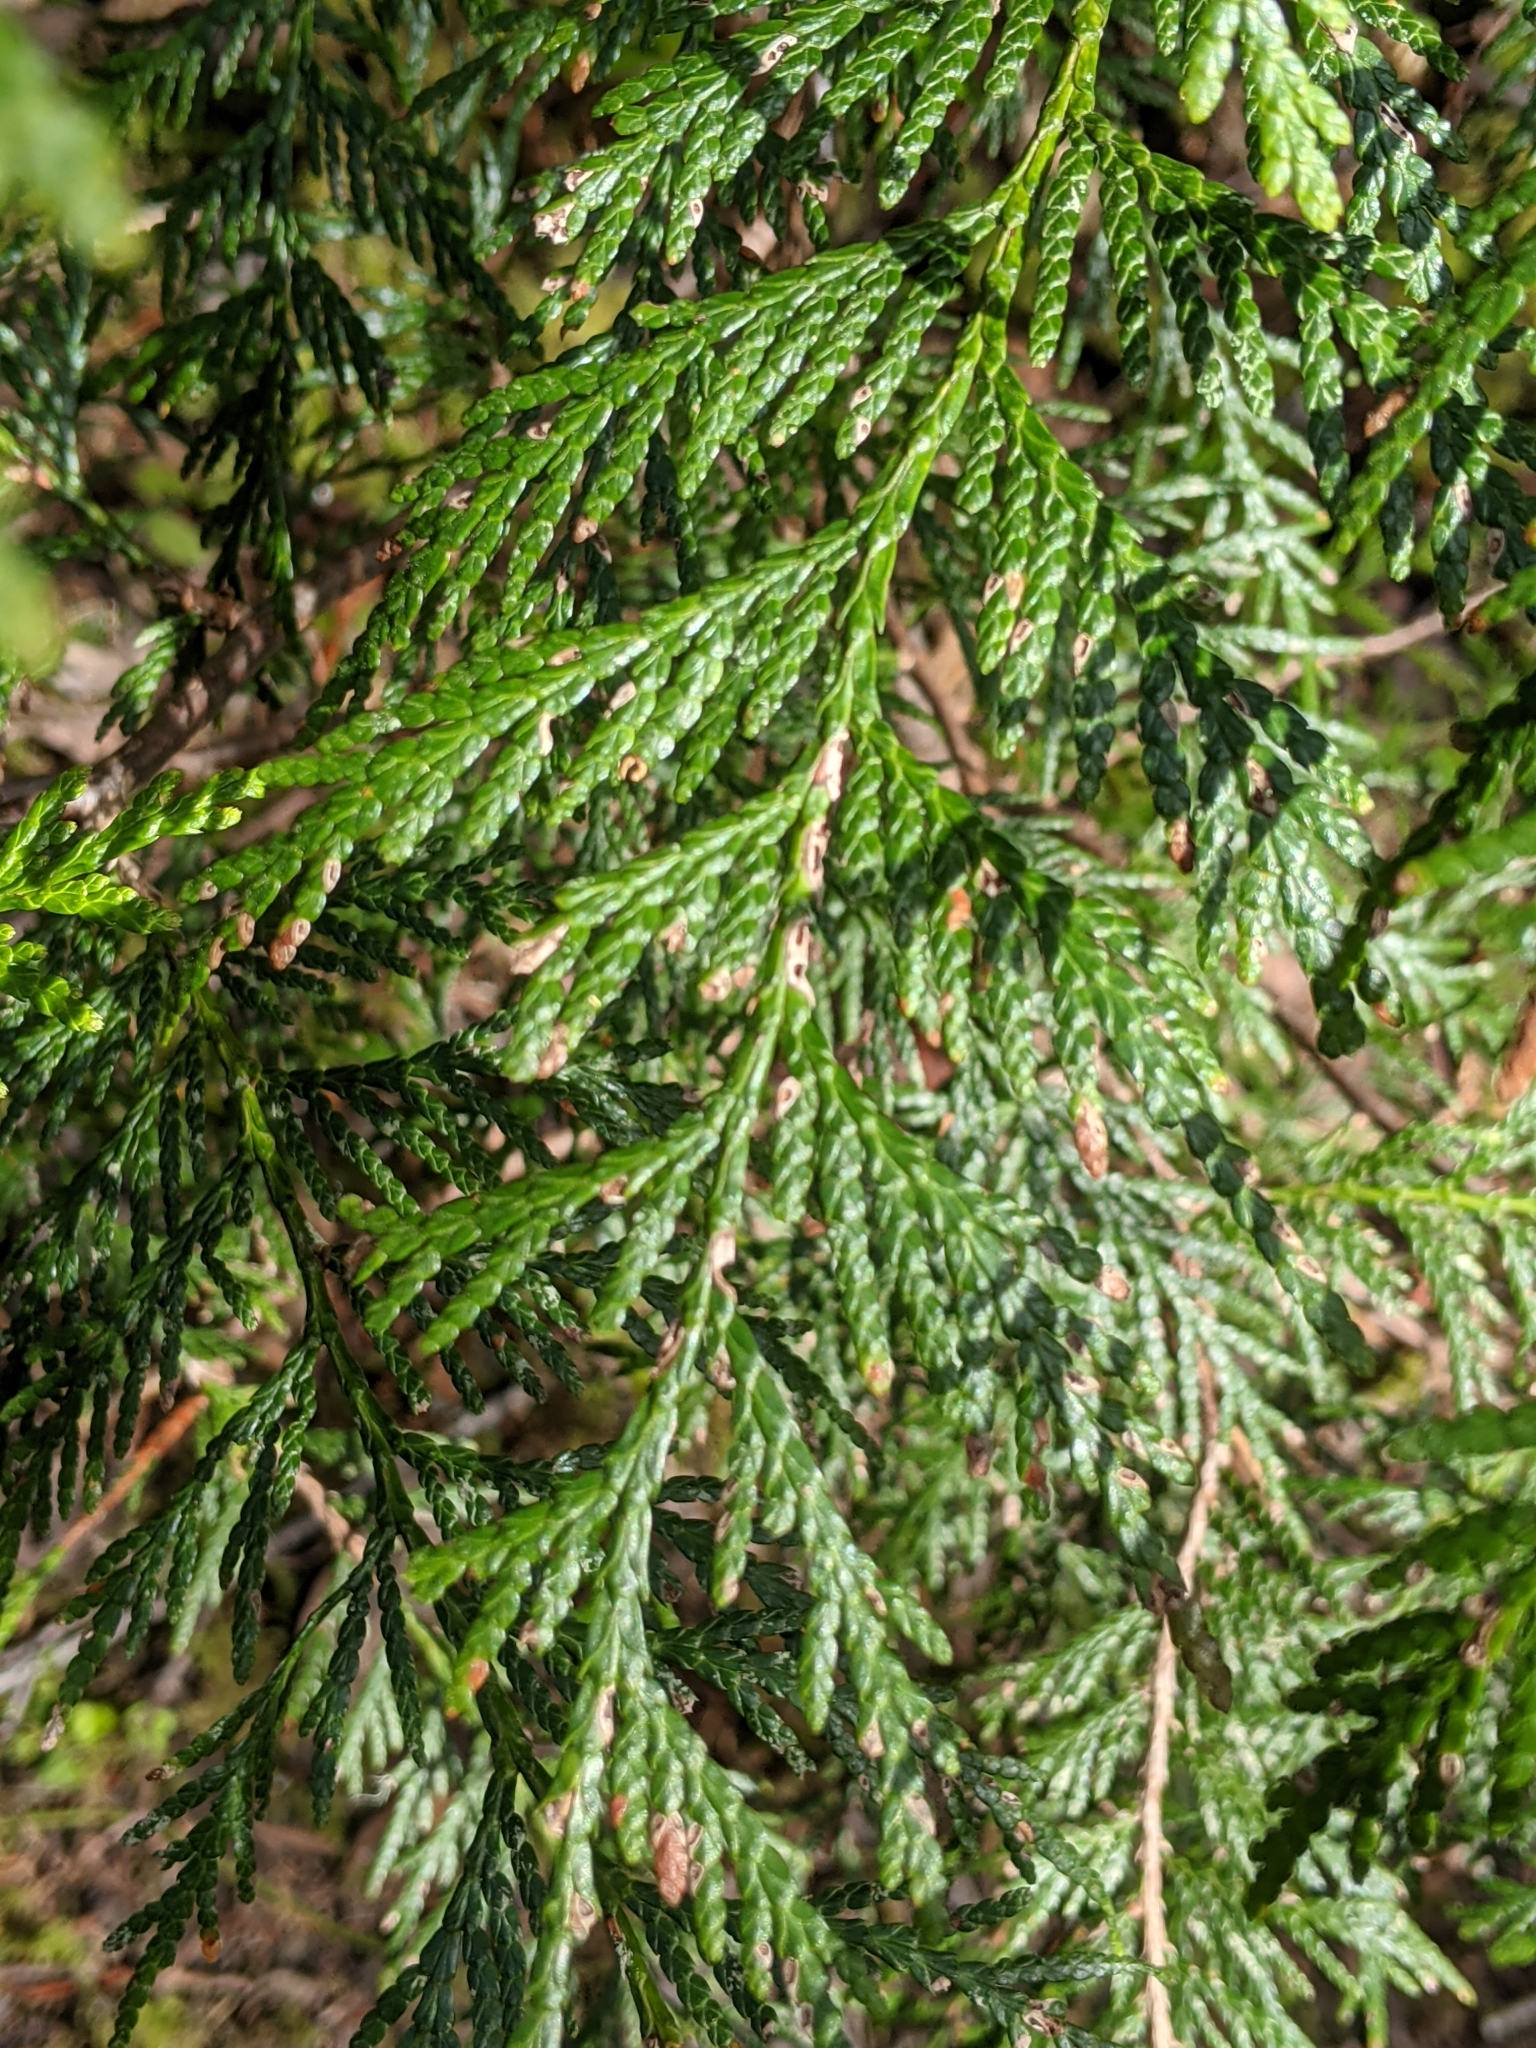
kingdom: Plantae
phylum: Tracheophyta
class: Pinopsida
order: Pinales
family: Cupressaceae
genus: Thuja
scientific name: Thuja plicata
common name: Western red-cedar
